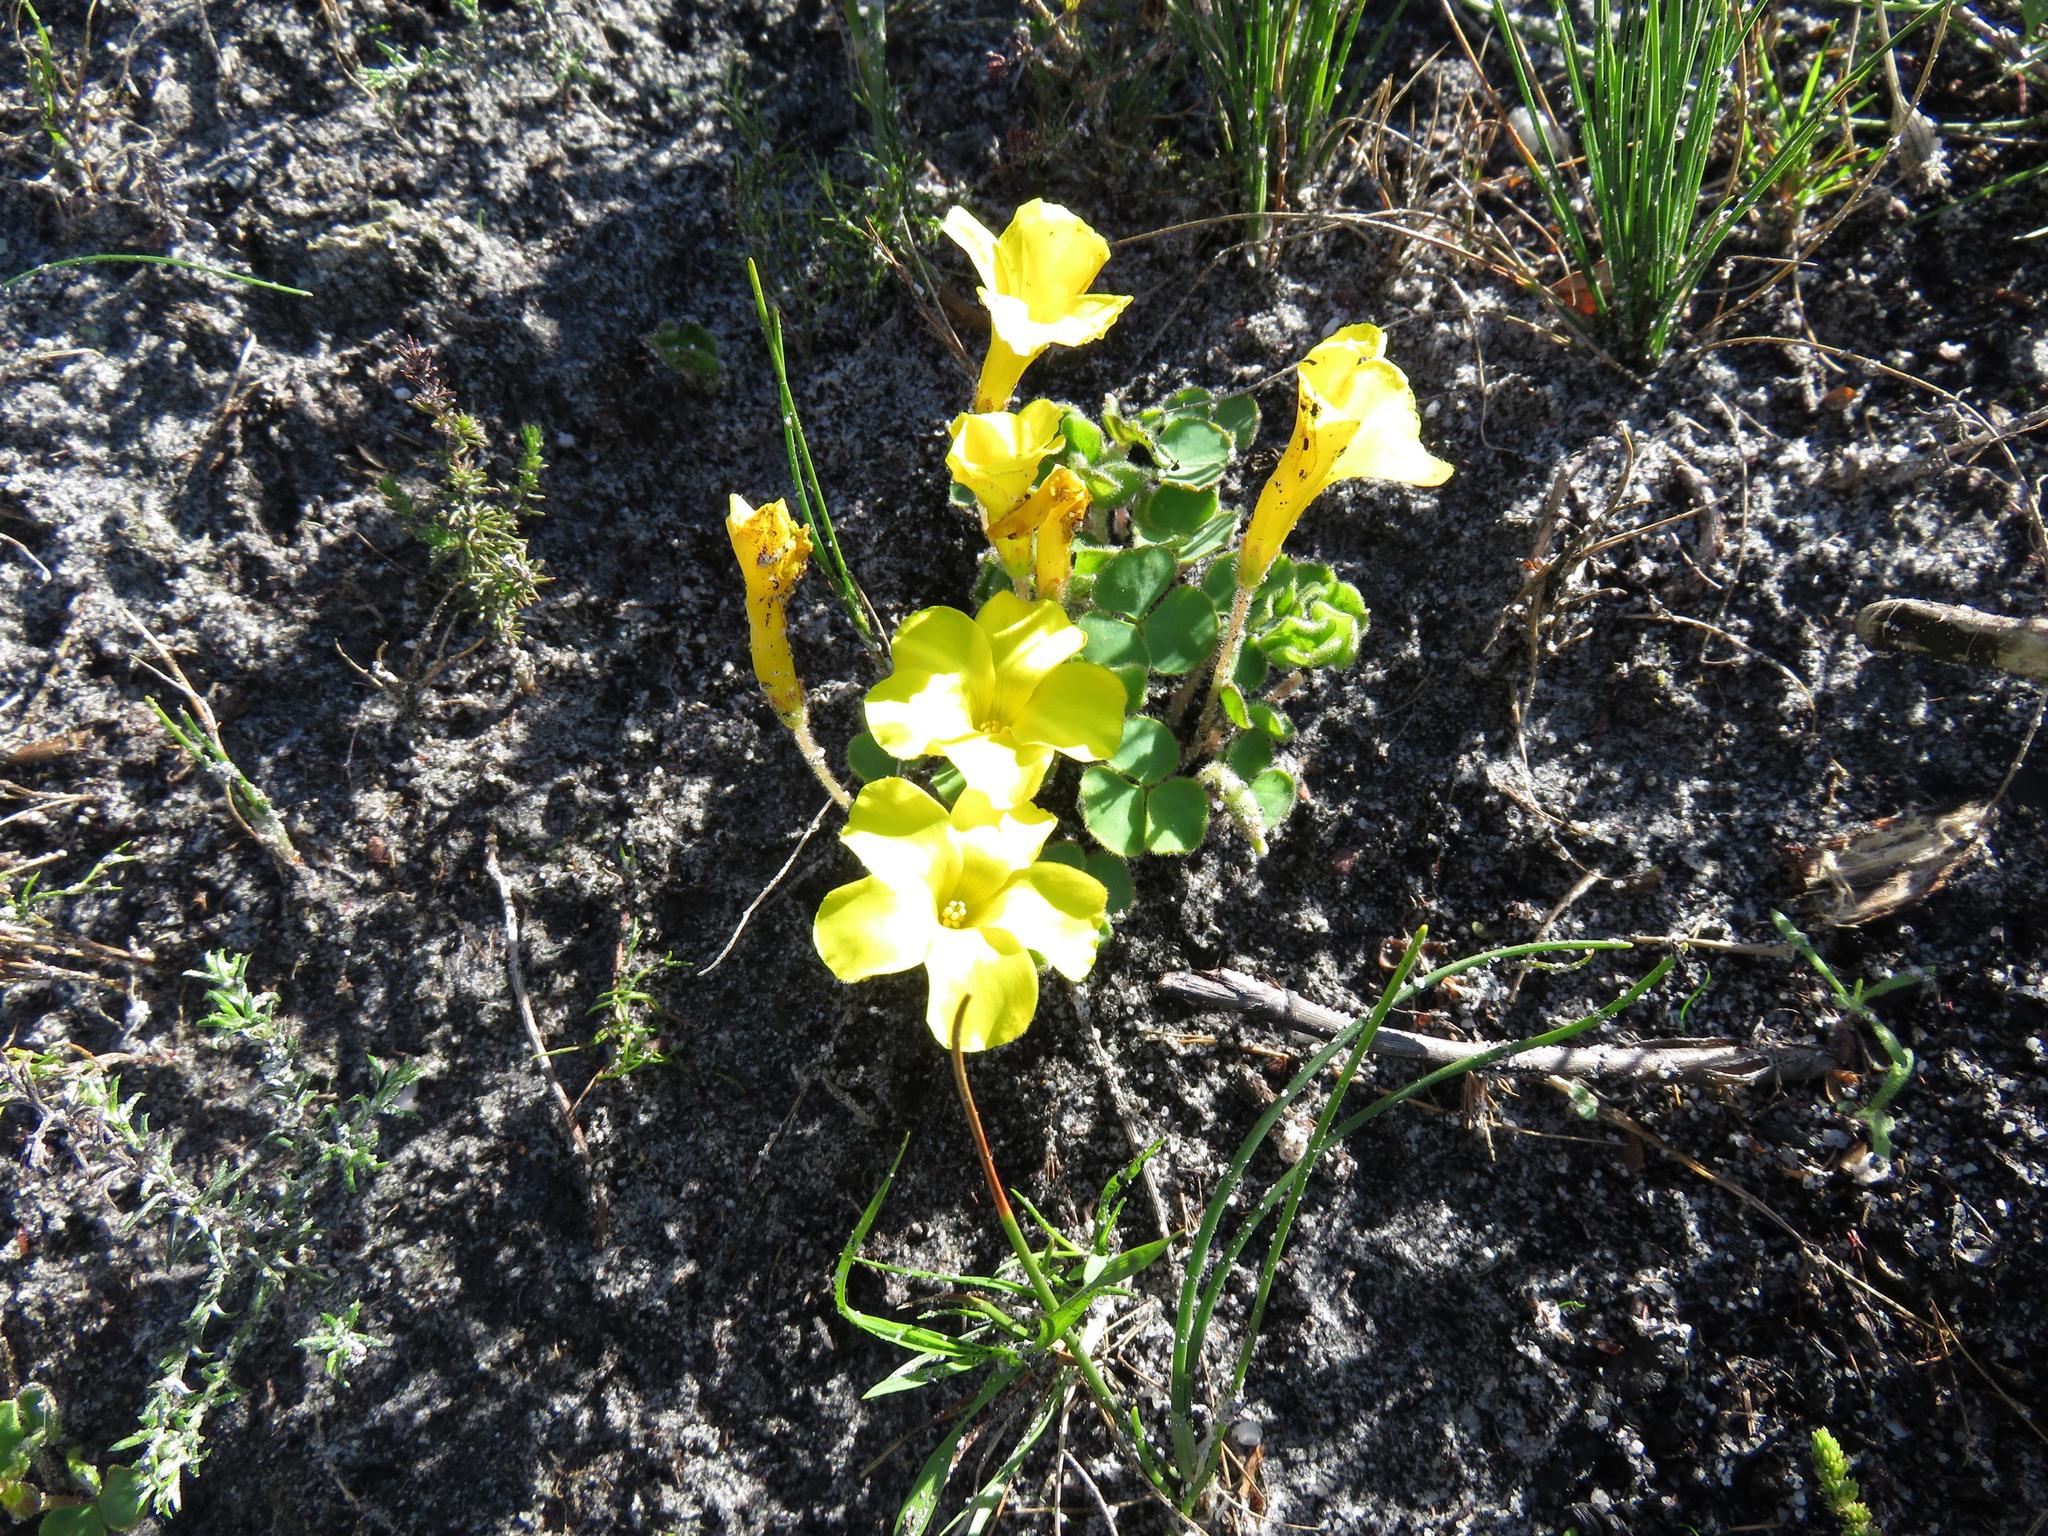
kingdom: Plantae
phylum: Tracheophyta
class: Magnoliopsida
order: Oxalidales
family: Oxalidaceae
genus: Oxalis
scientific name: Oxalis luteola
